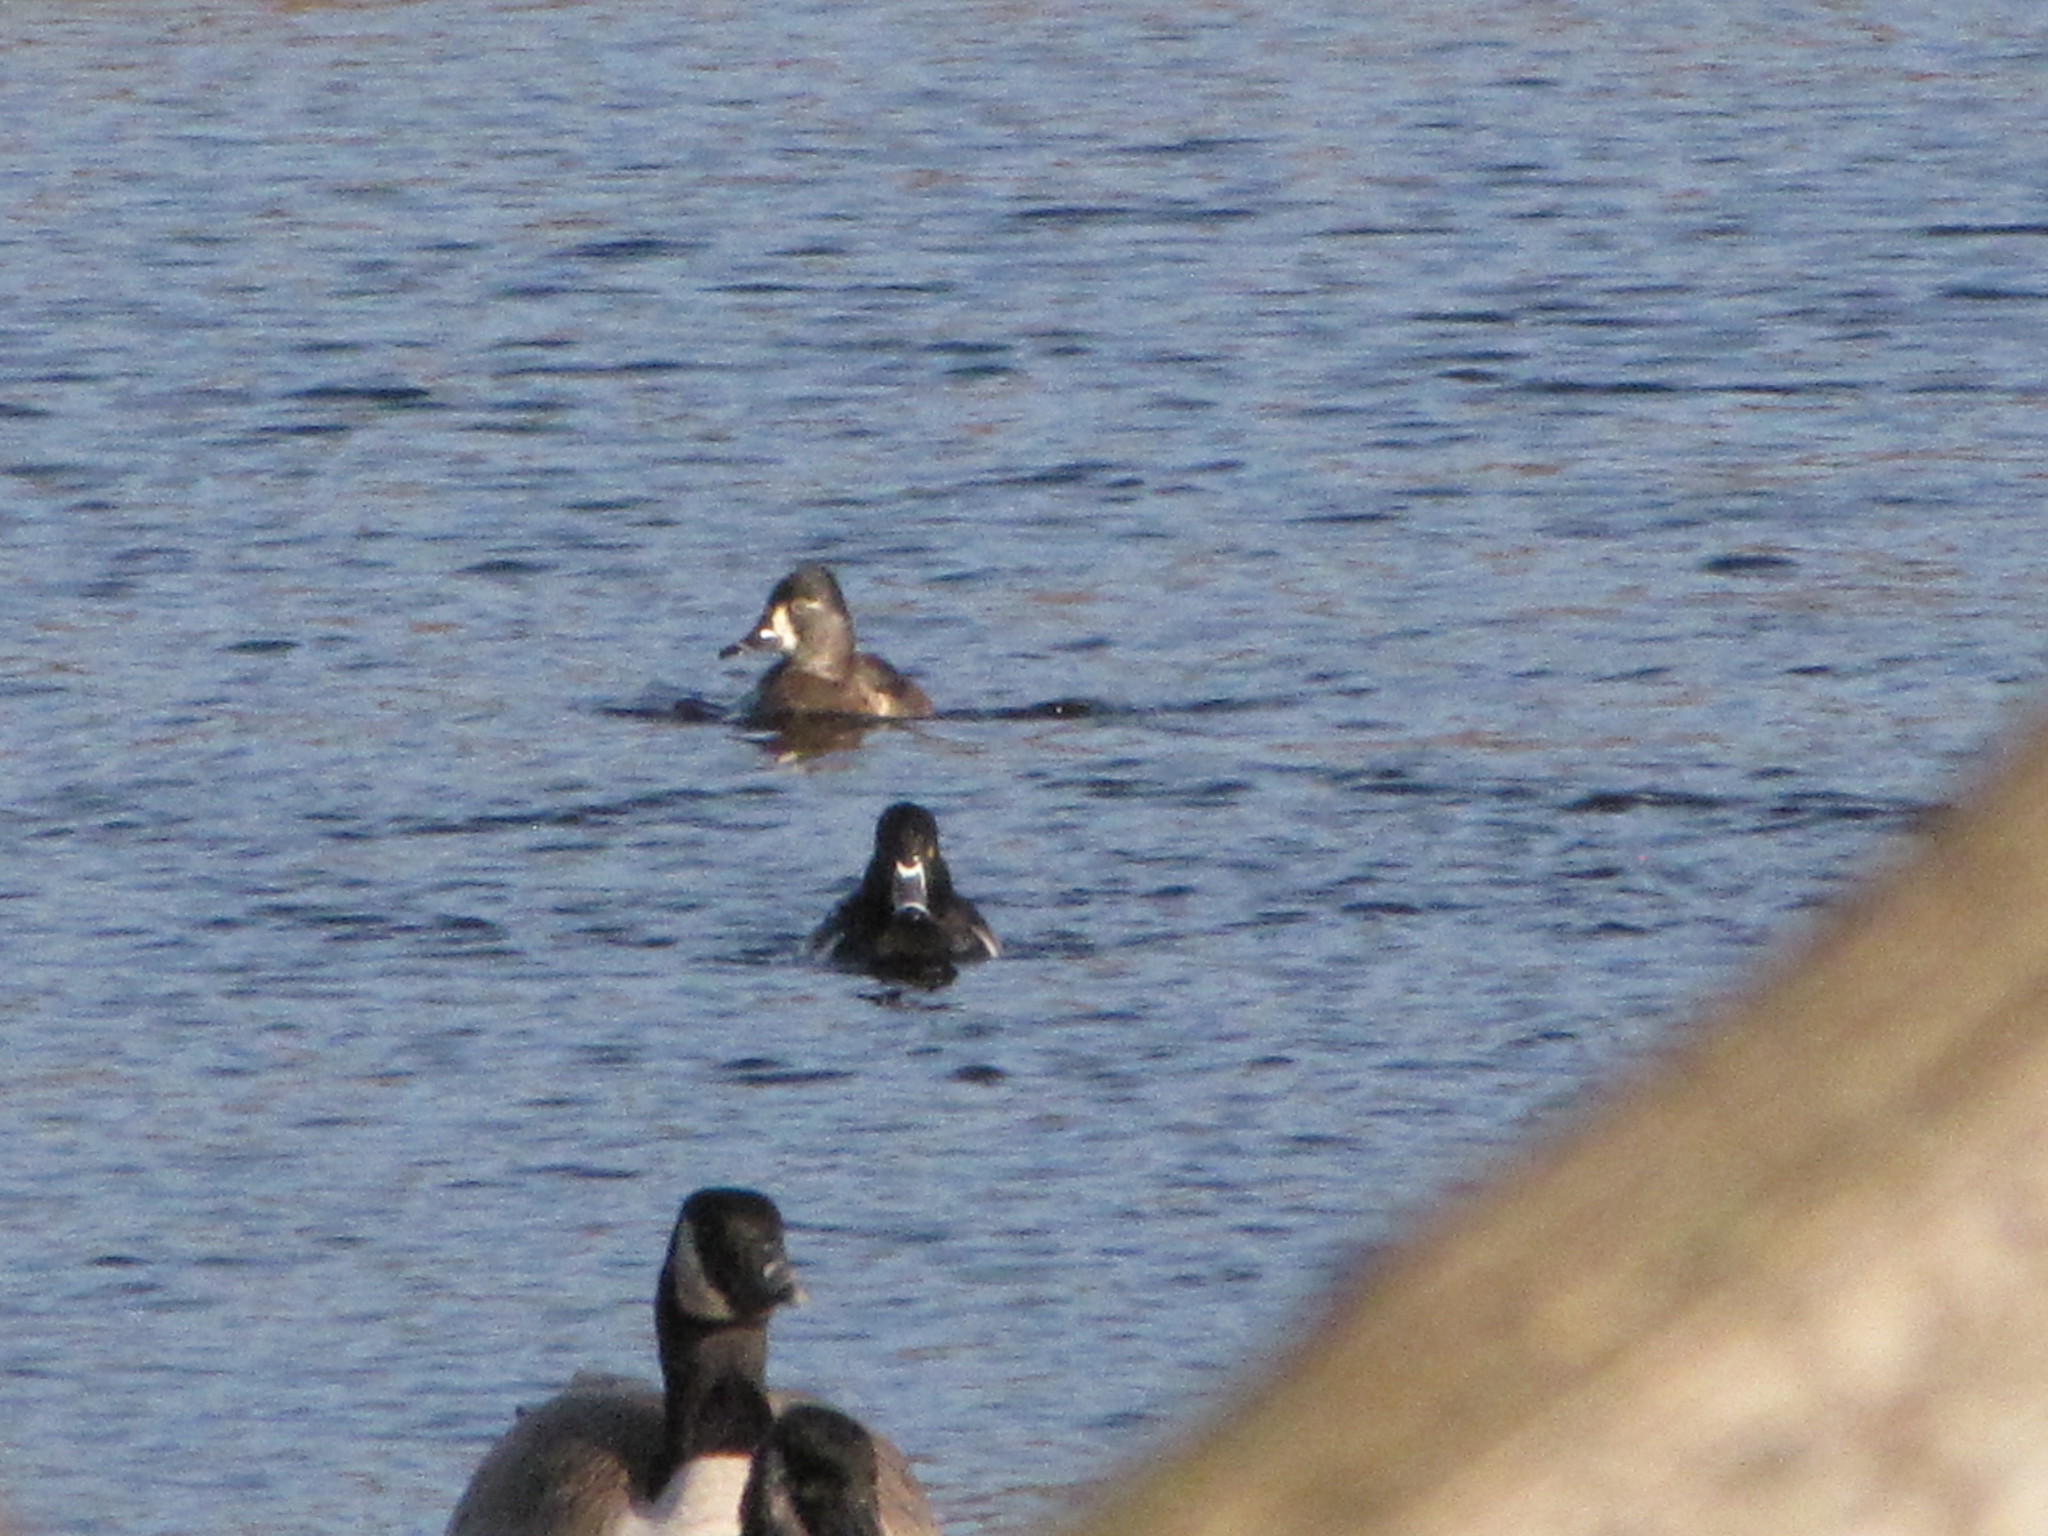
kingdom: Animalia
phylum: Chordata
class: Aves
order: Anseriformes
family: Anatidae
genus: Aythya
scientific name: Aythya collaris
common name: Ring-necked duck
